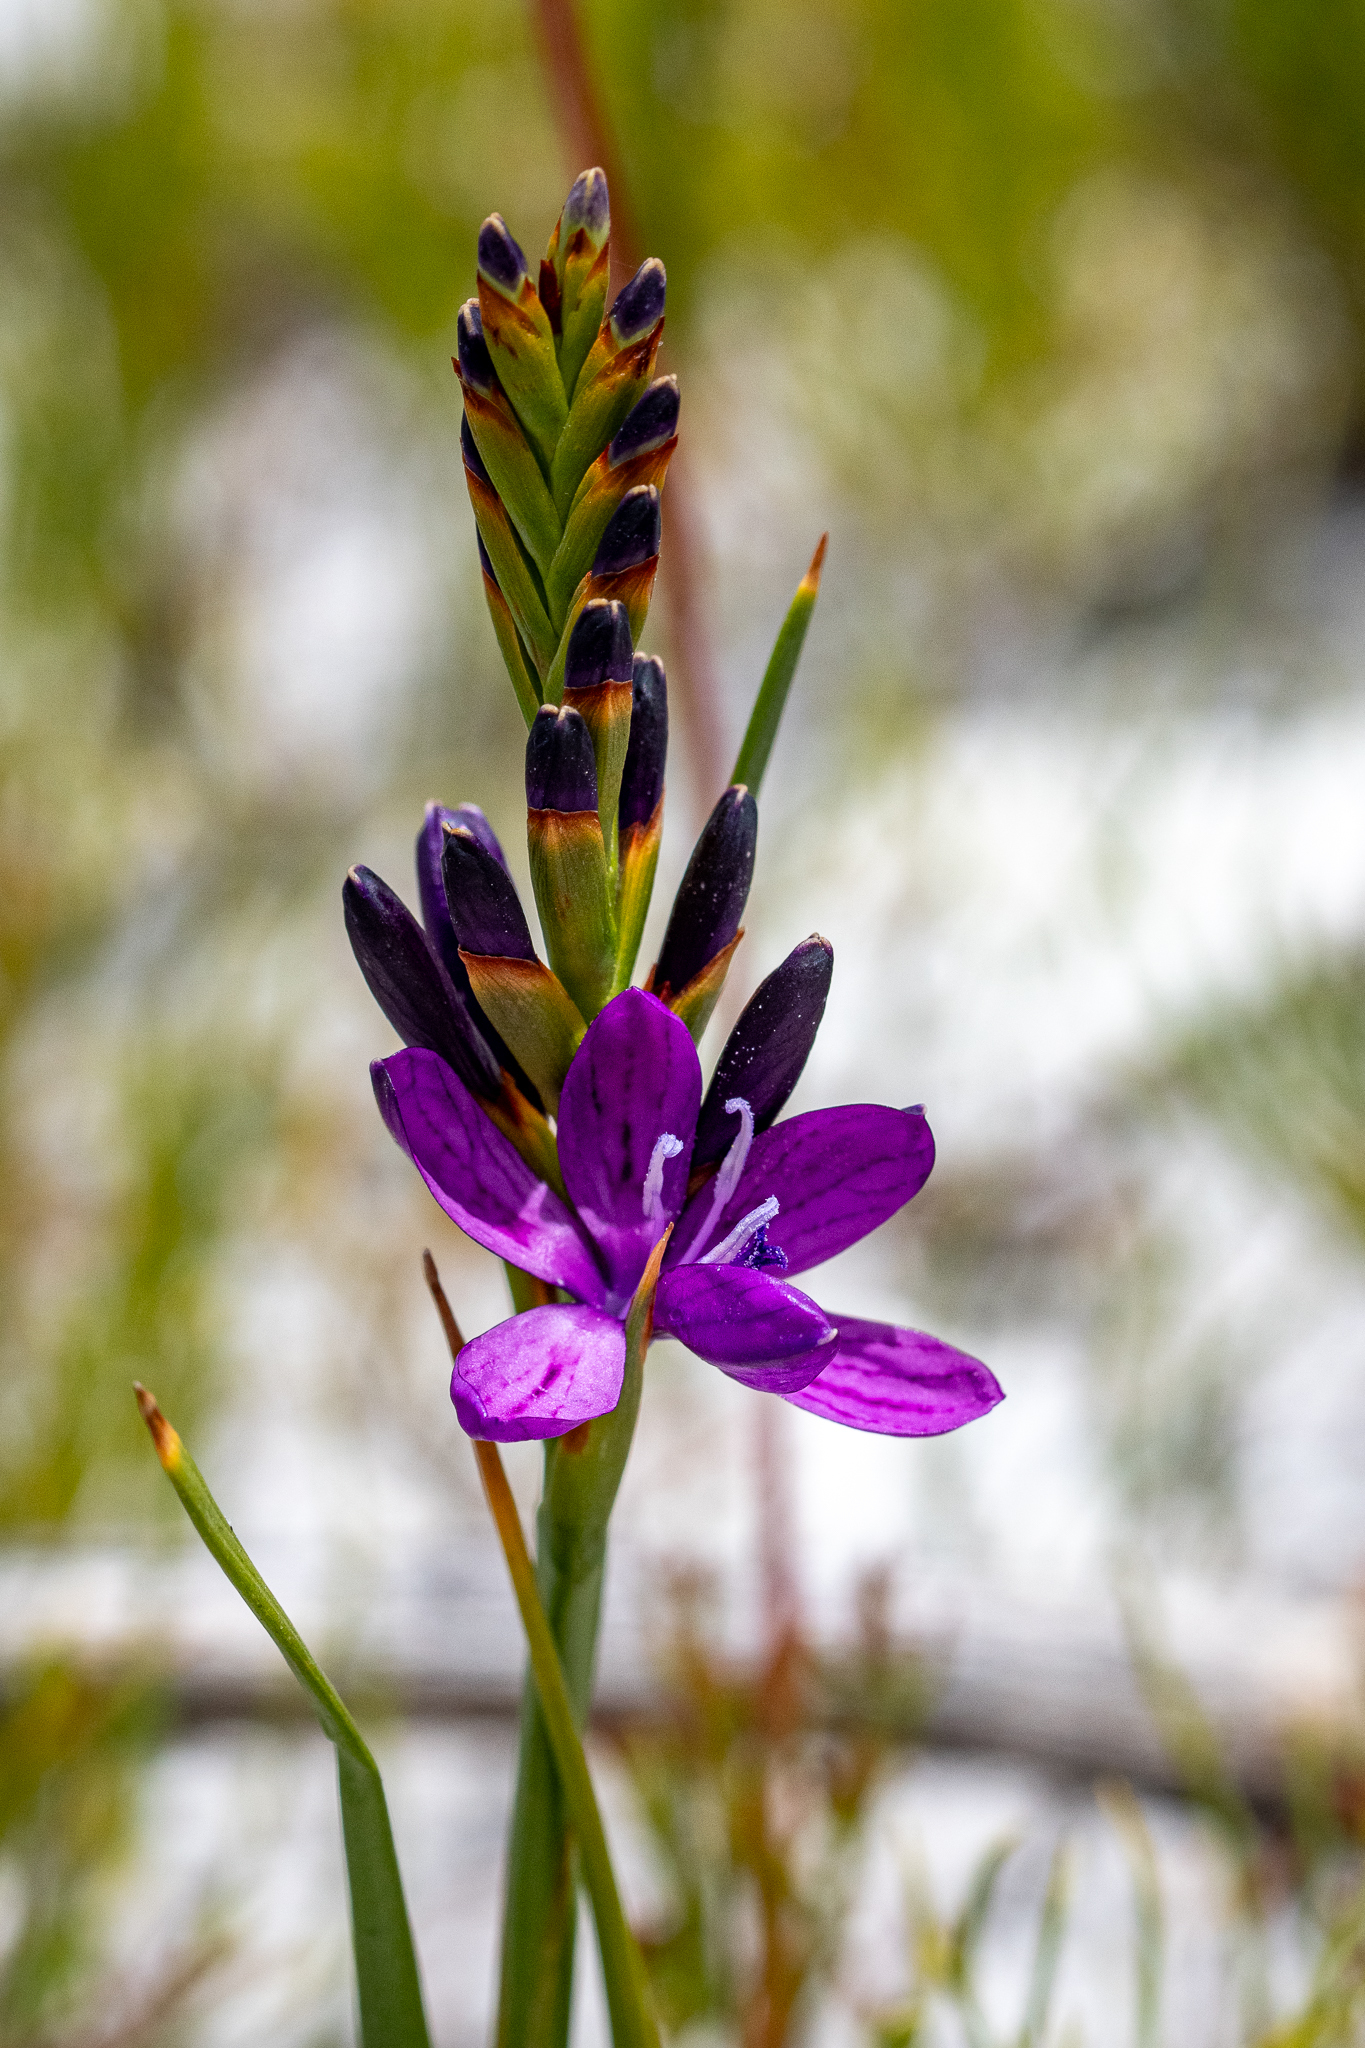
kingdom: Plantae
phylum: Tracheophyta
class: Liliopsida
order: Asparagales
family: Iridaceae
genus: Thereianthus
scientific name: Thereianthus bracteolatus
